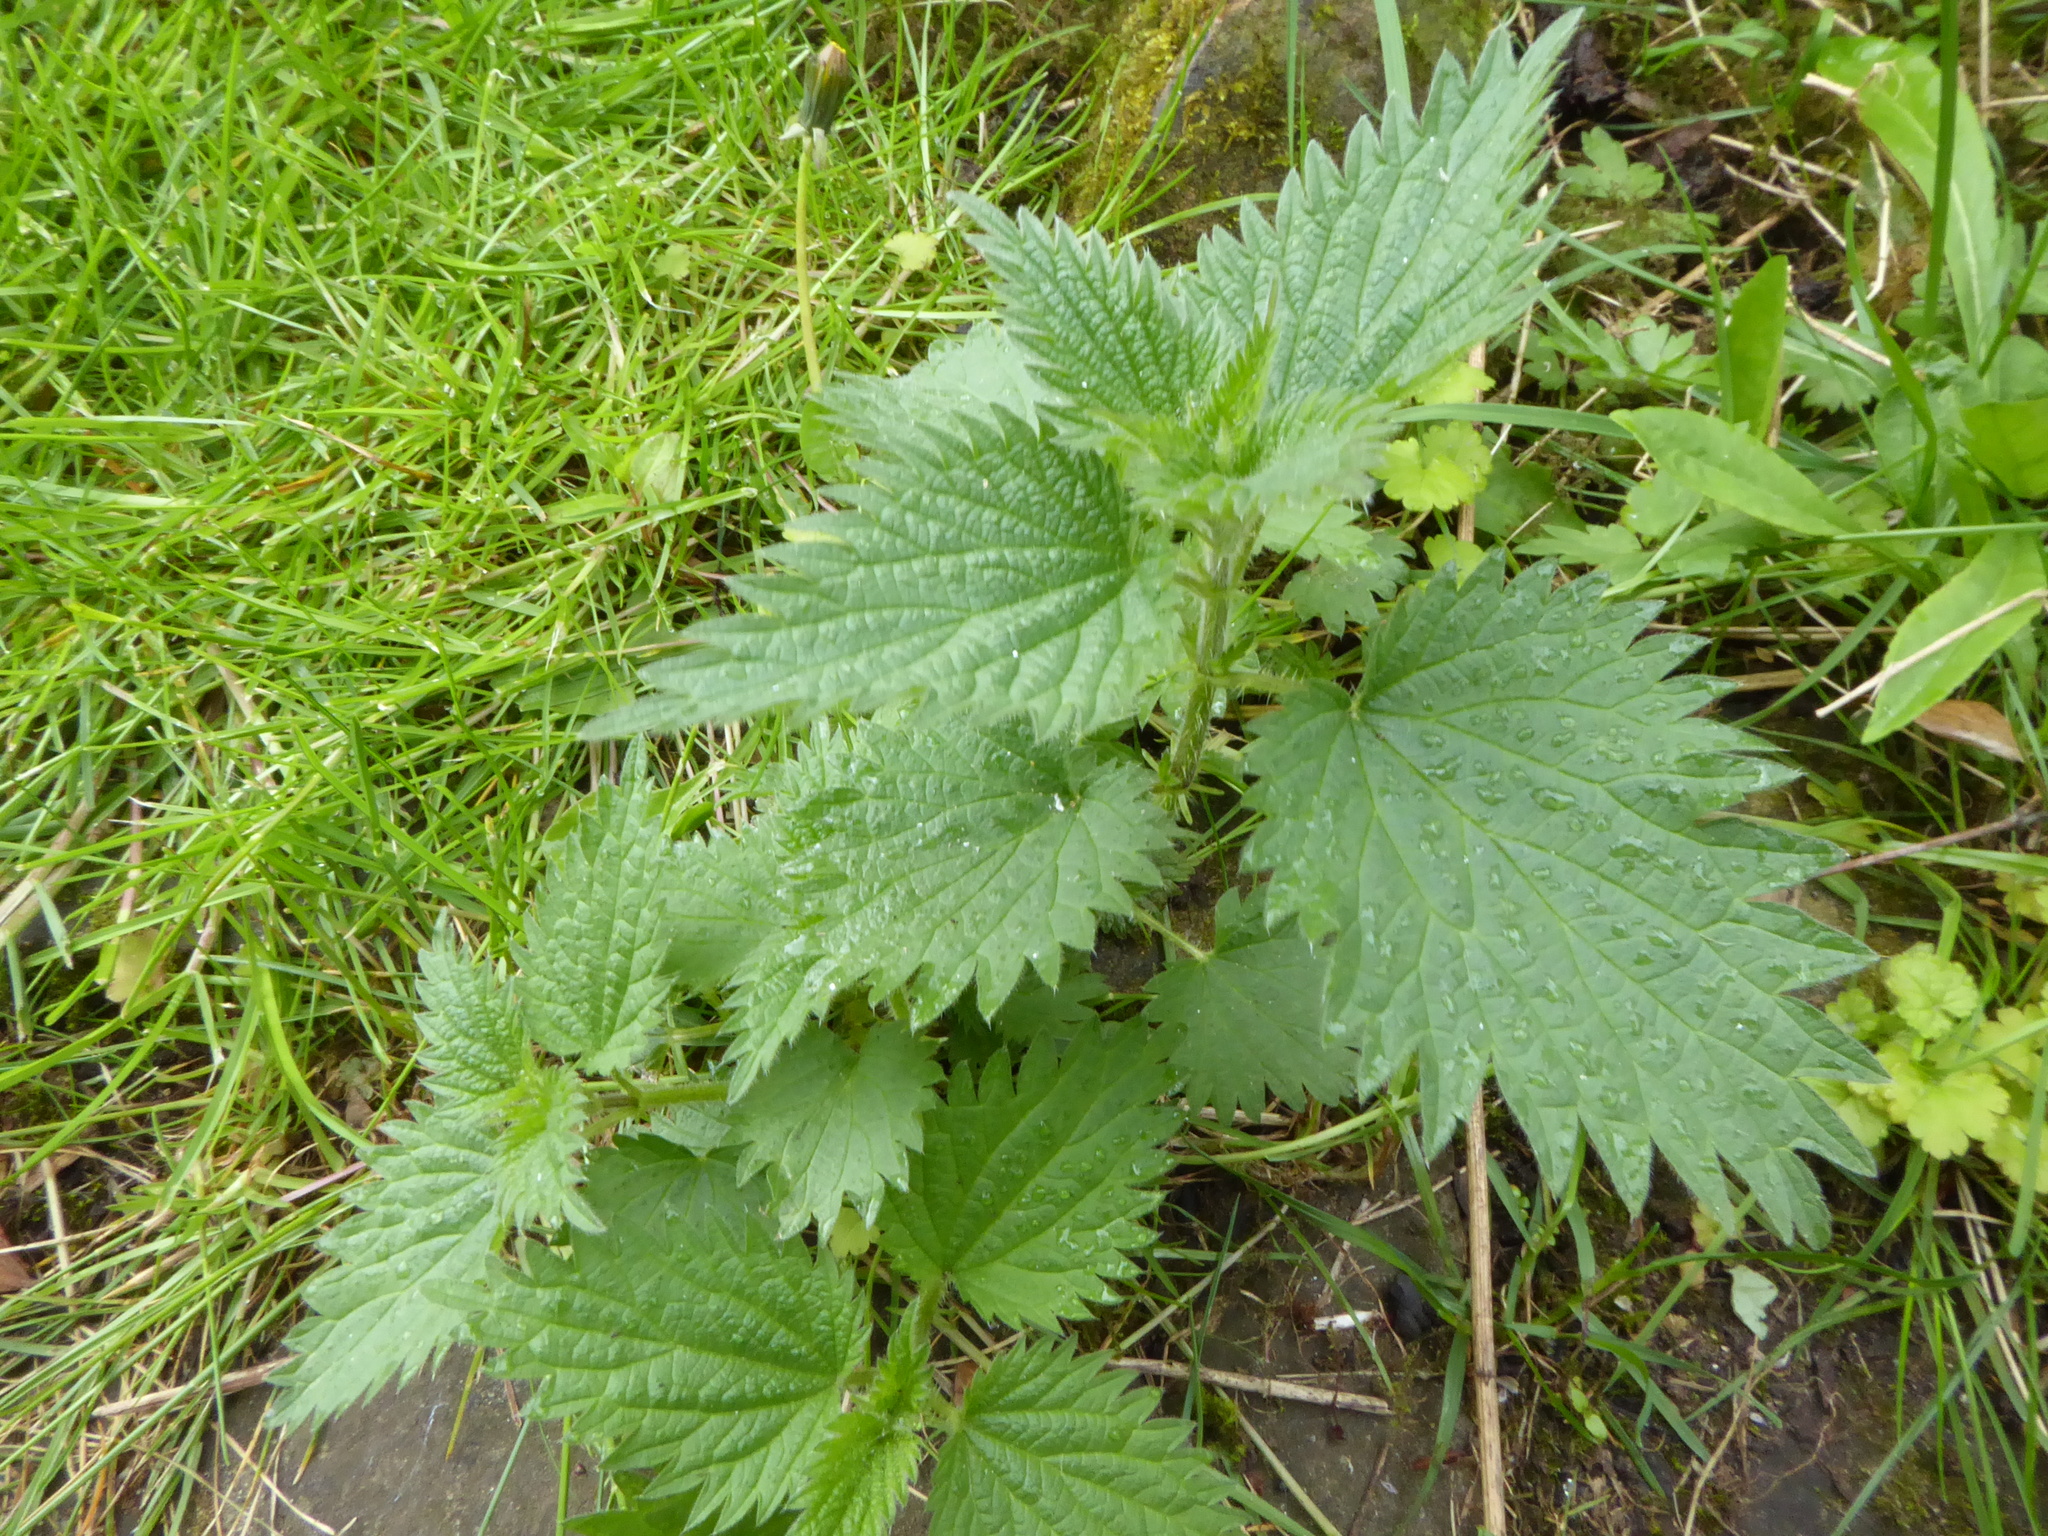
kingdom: Plantae
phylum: Tracheophyta
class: Magnoliopsida
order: Rosales
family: Urticaceae
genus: Urtica
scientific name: Urtica dioica
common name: Common nettle
